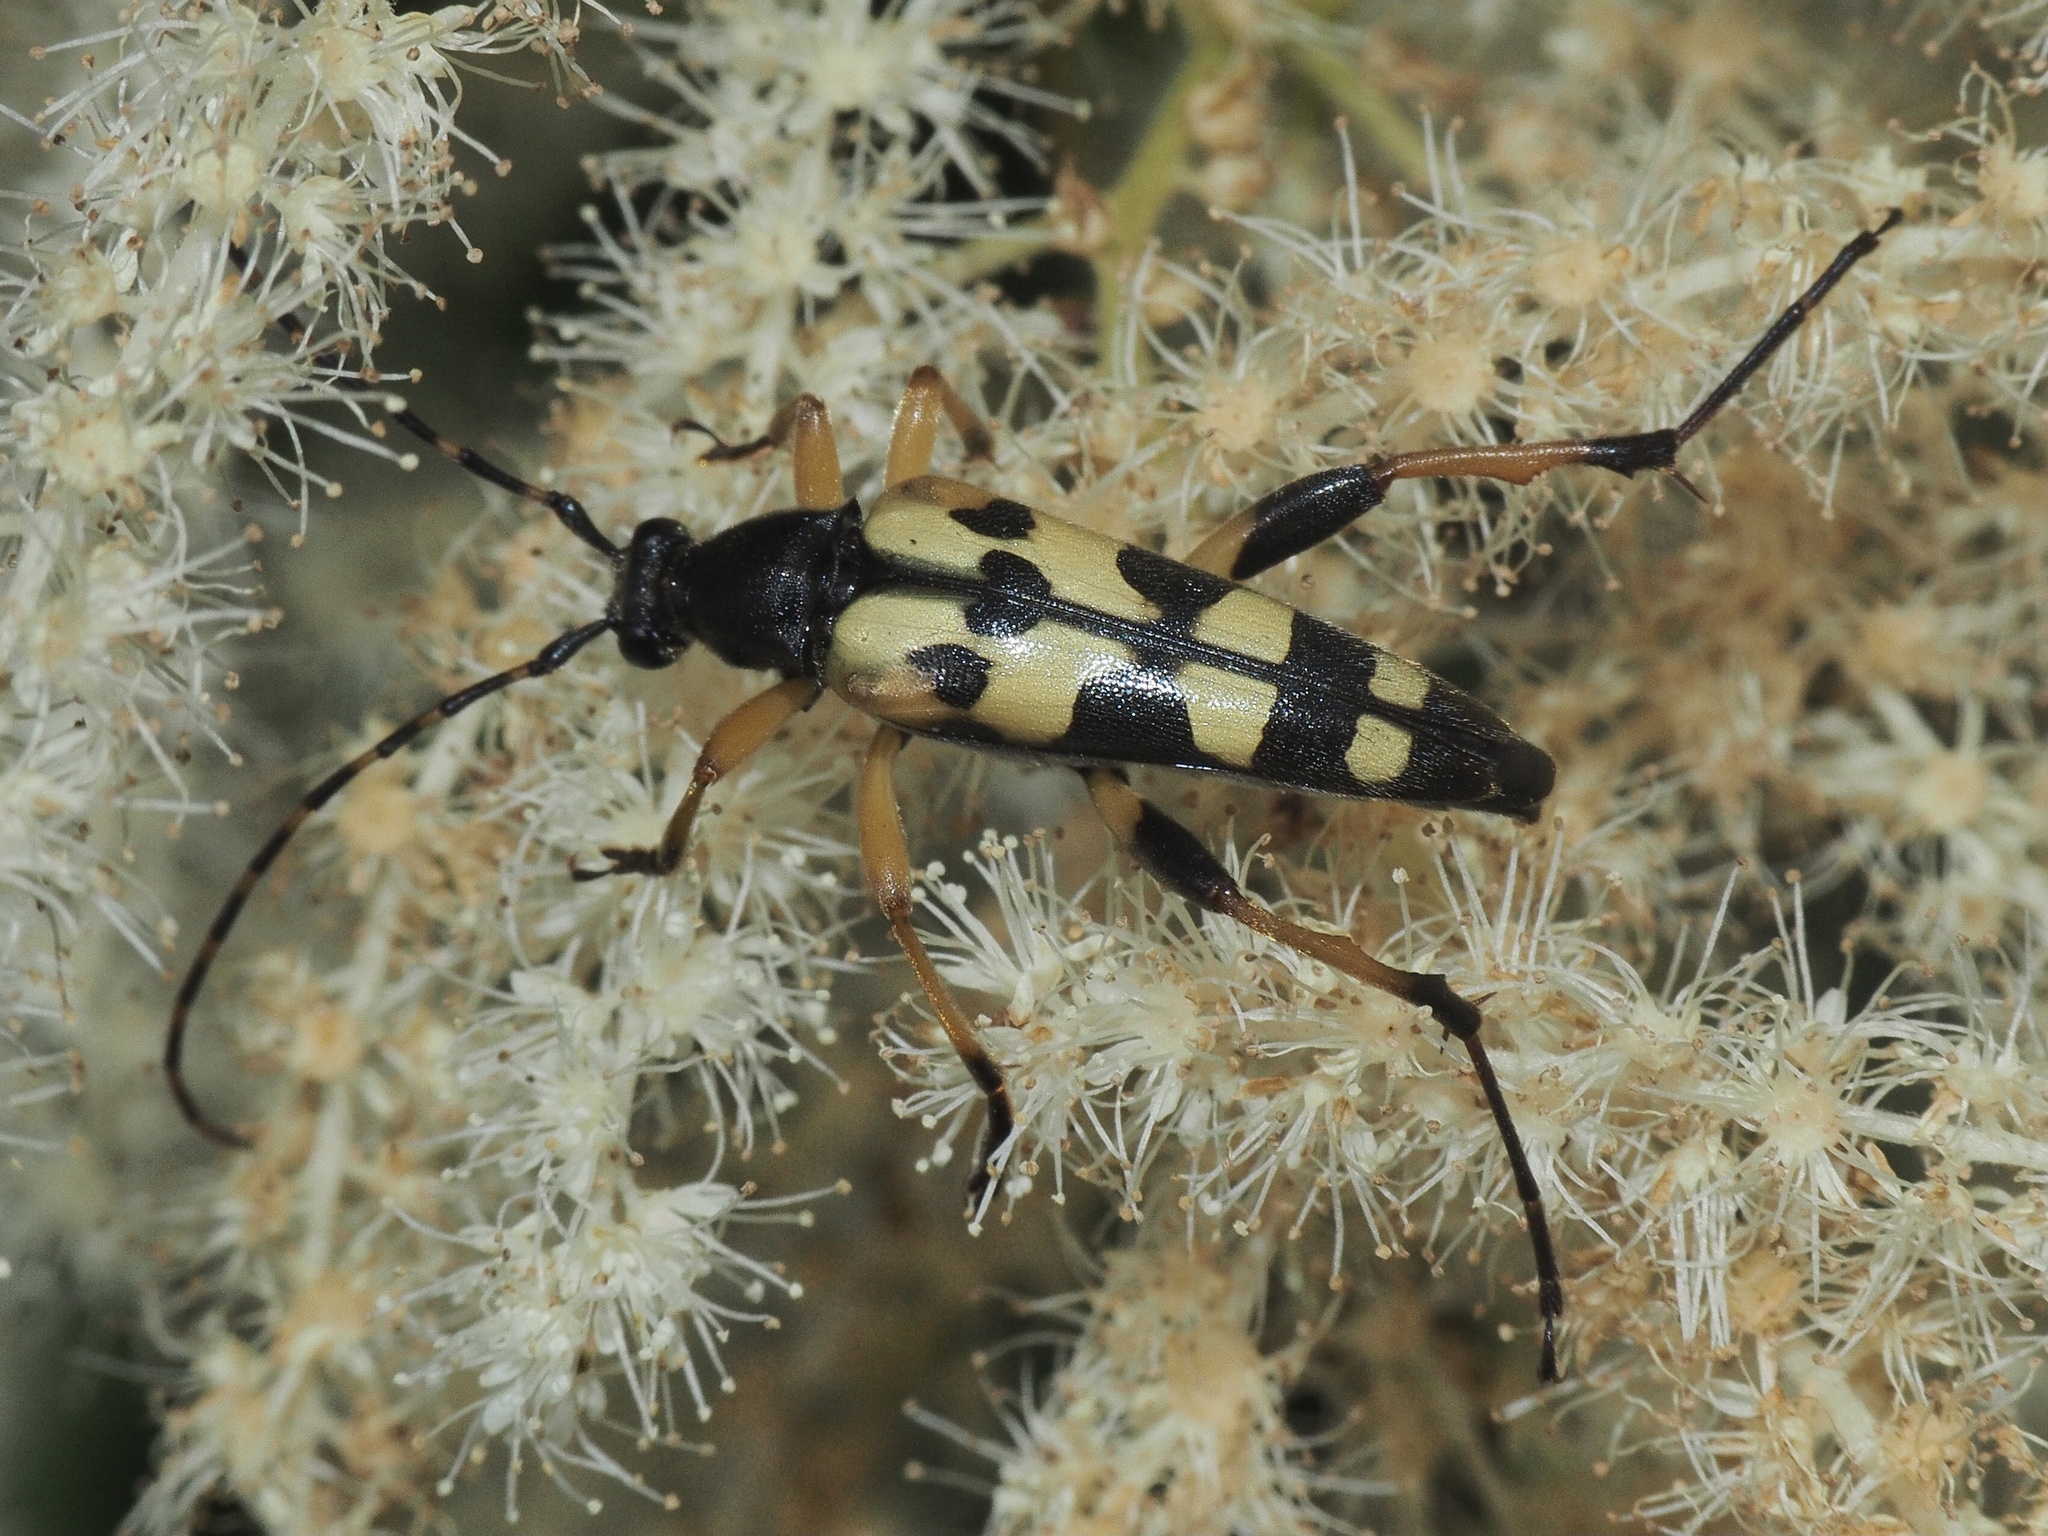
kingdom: Animalia
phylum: Arthropoda
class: Insecta
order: Coleoptera
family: Cerambycidae
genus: Rutpela
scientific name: Rutpela maculata
